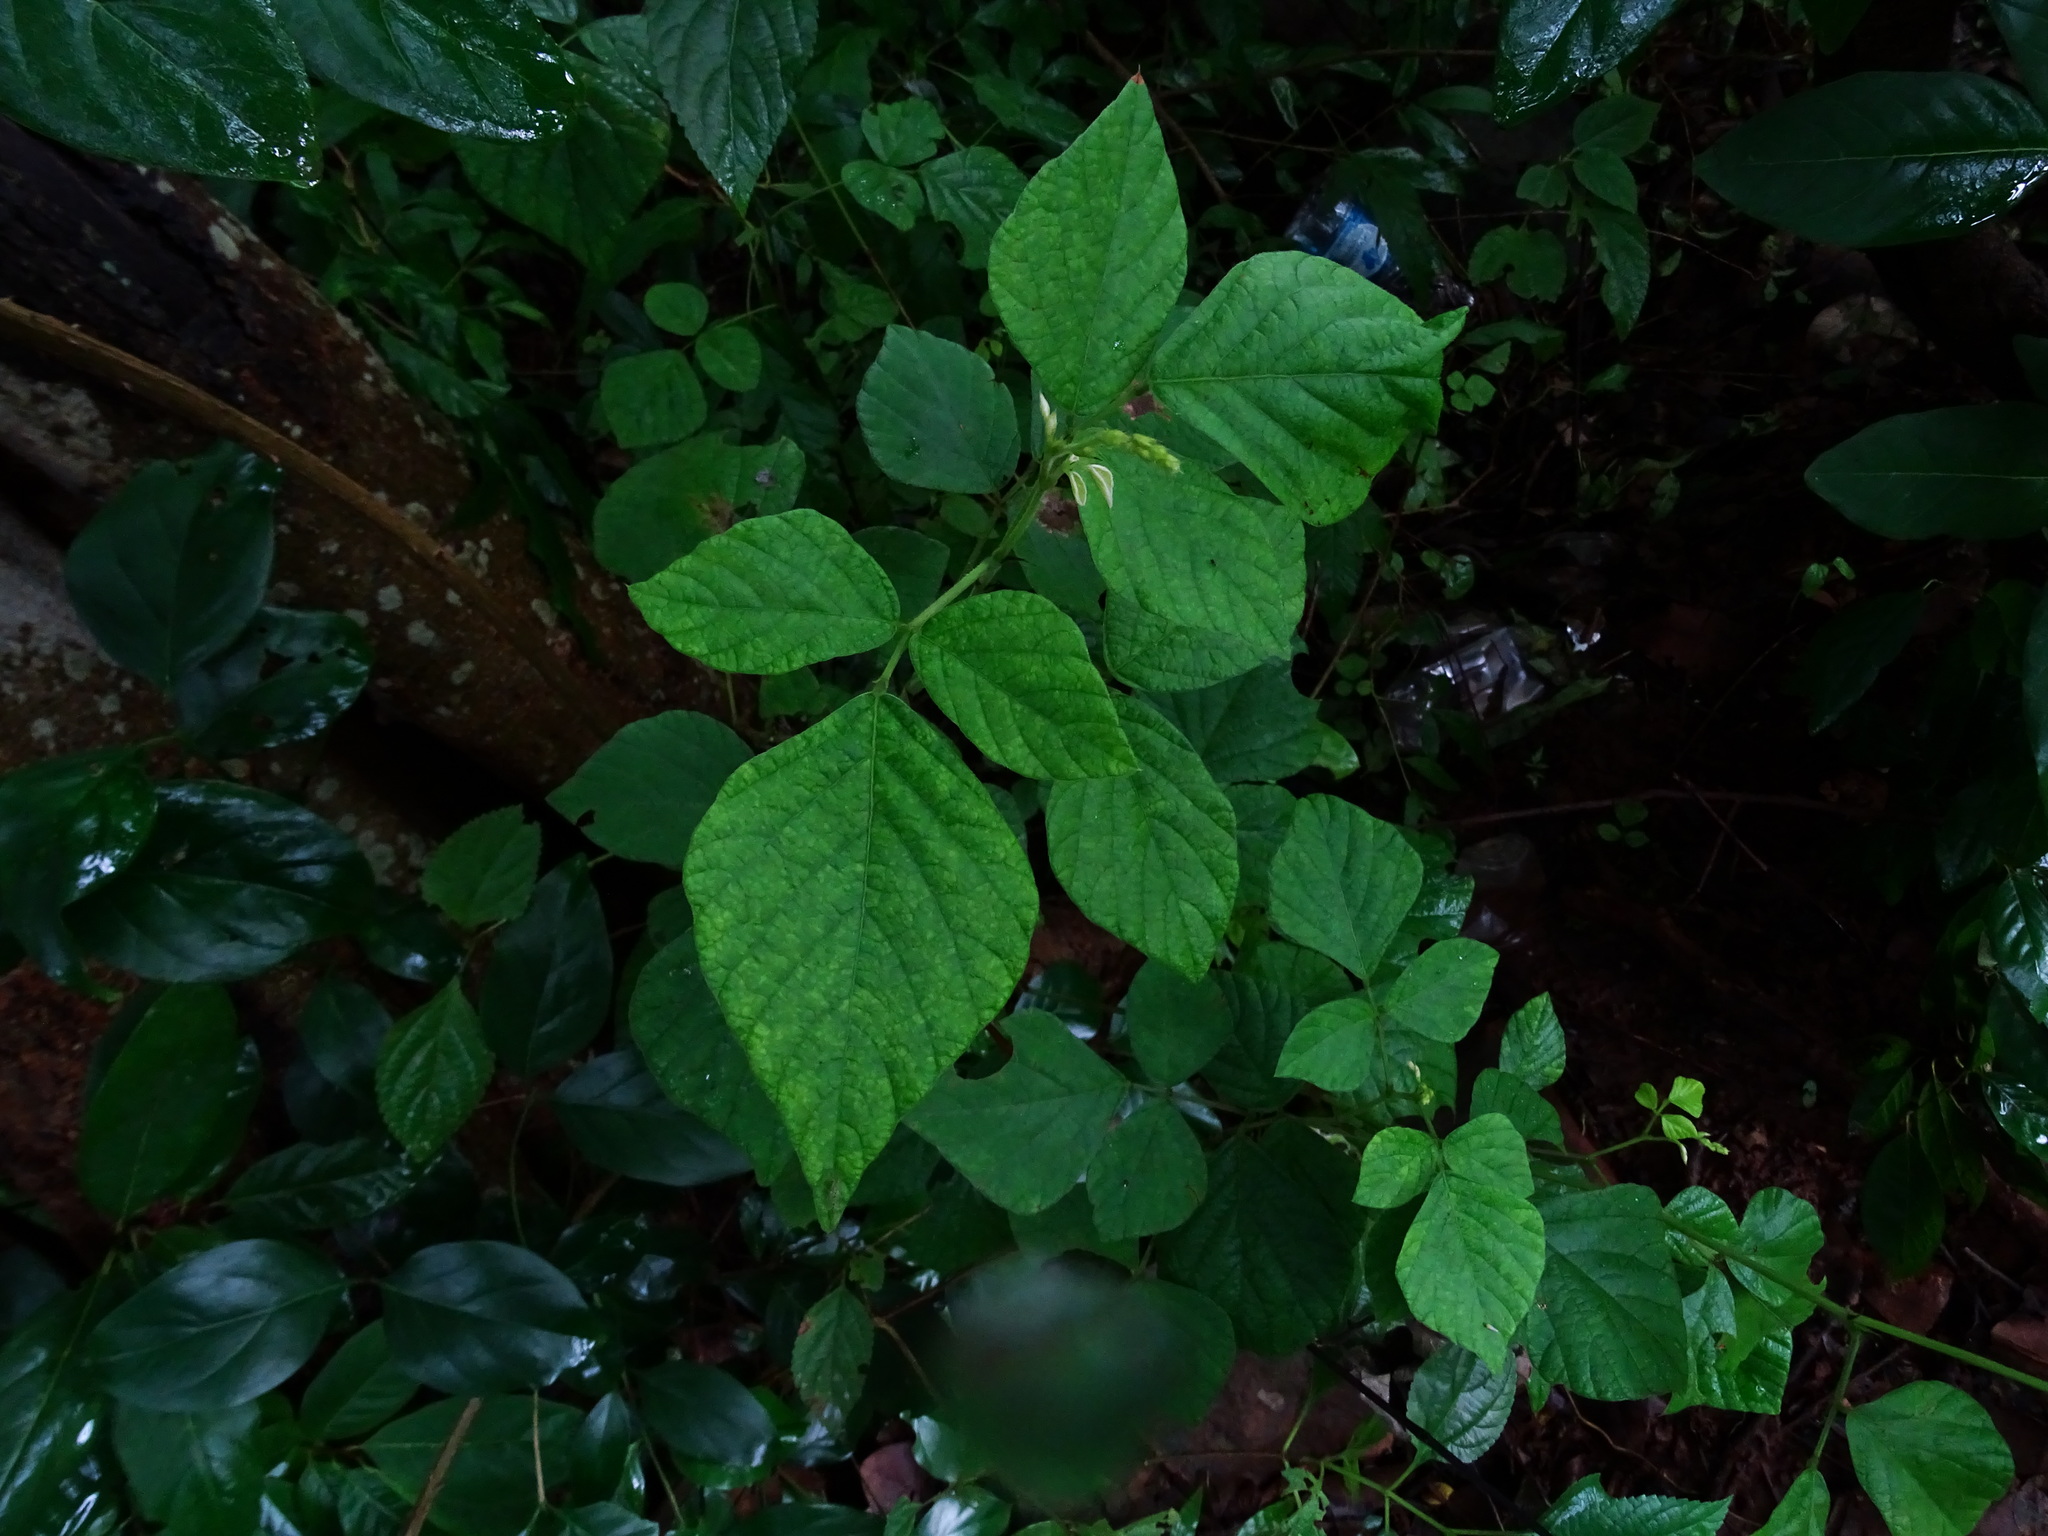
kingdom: Plantae
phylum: Tracheophyta
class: Magnoliopsida
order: Fabales
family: Fabaceae
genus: Pseudarthria
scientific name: Pseudarthria viscida
